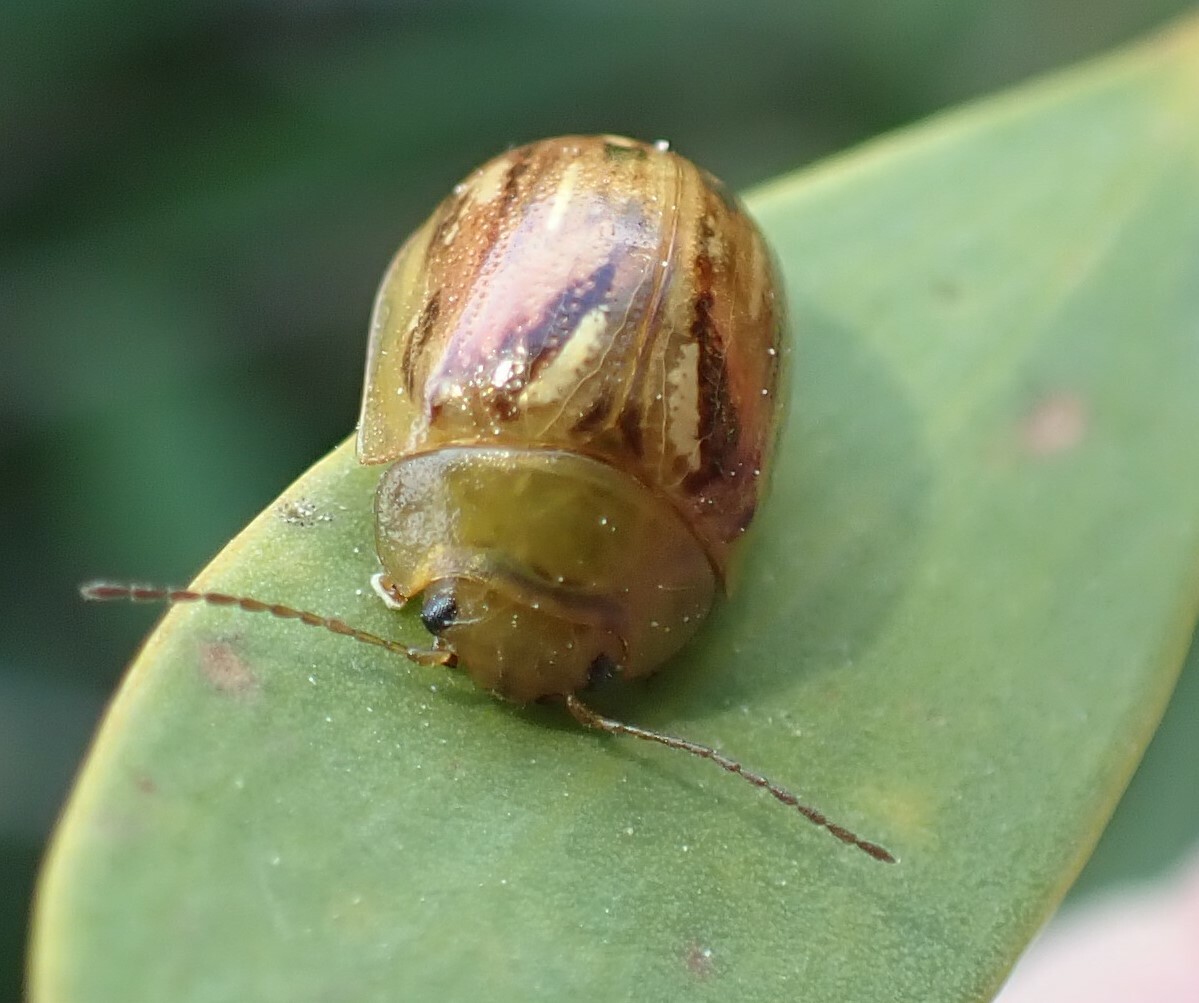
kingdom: Animalia
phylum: Arthropoda
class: Insecta
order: Coleoptera
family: Chrysomelidae
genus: Paropsisterna
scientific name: Paropsisterna
